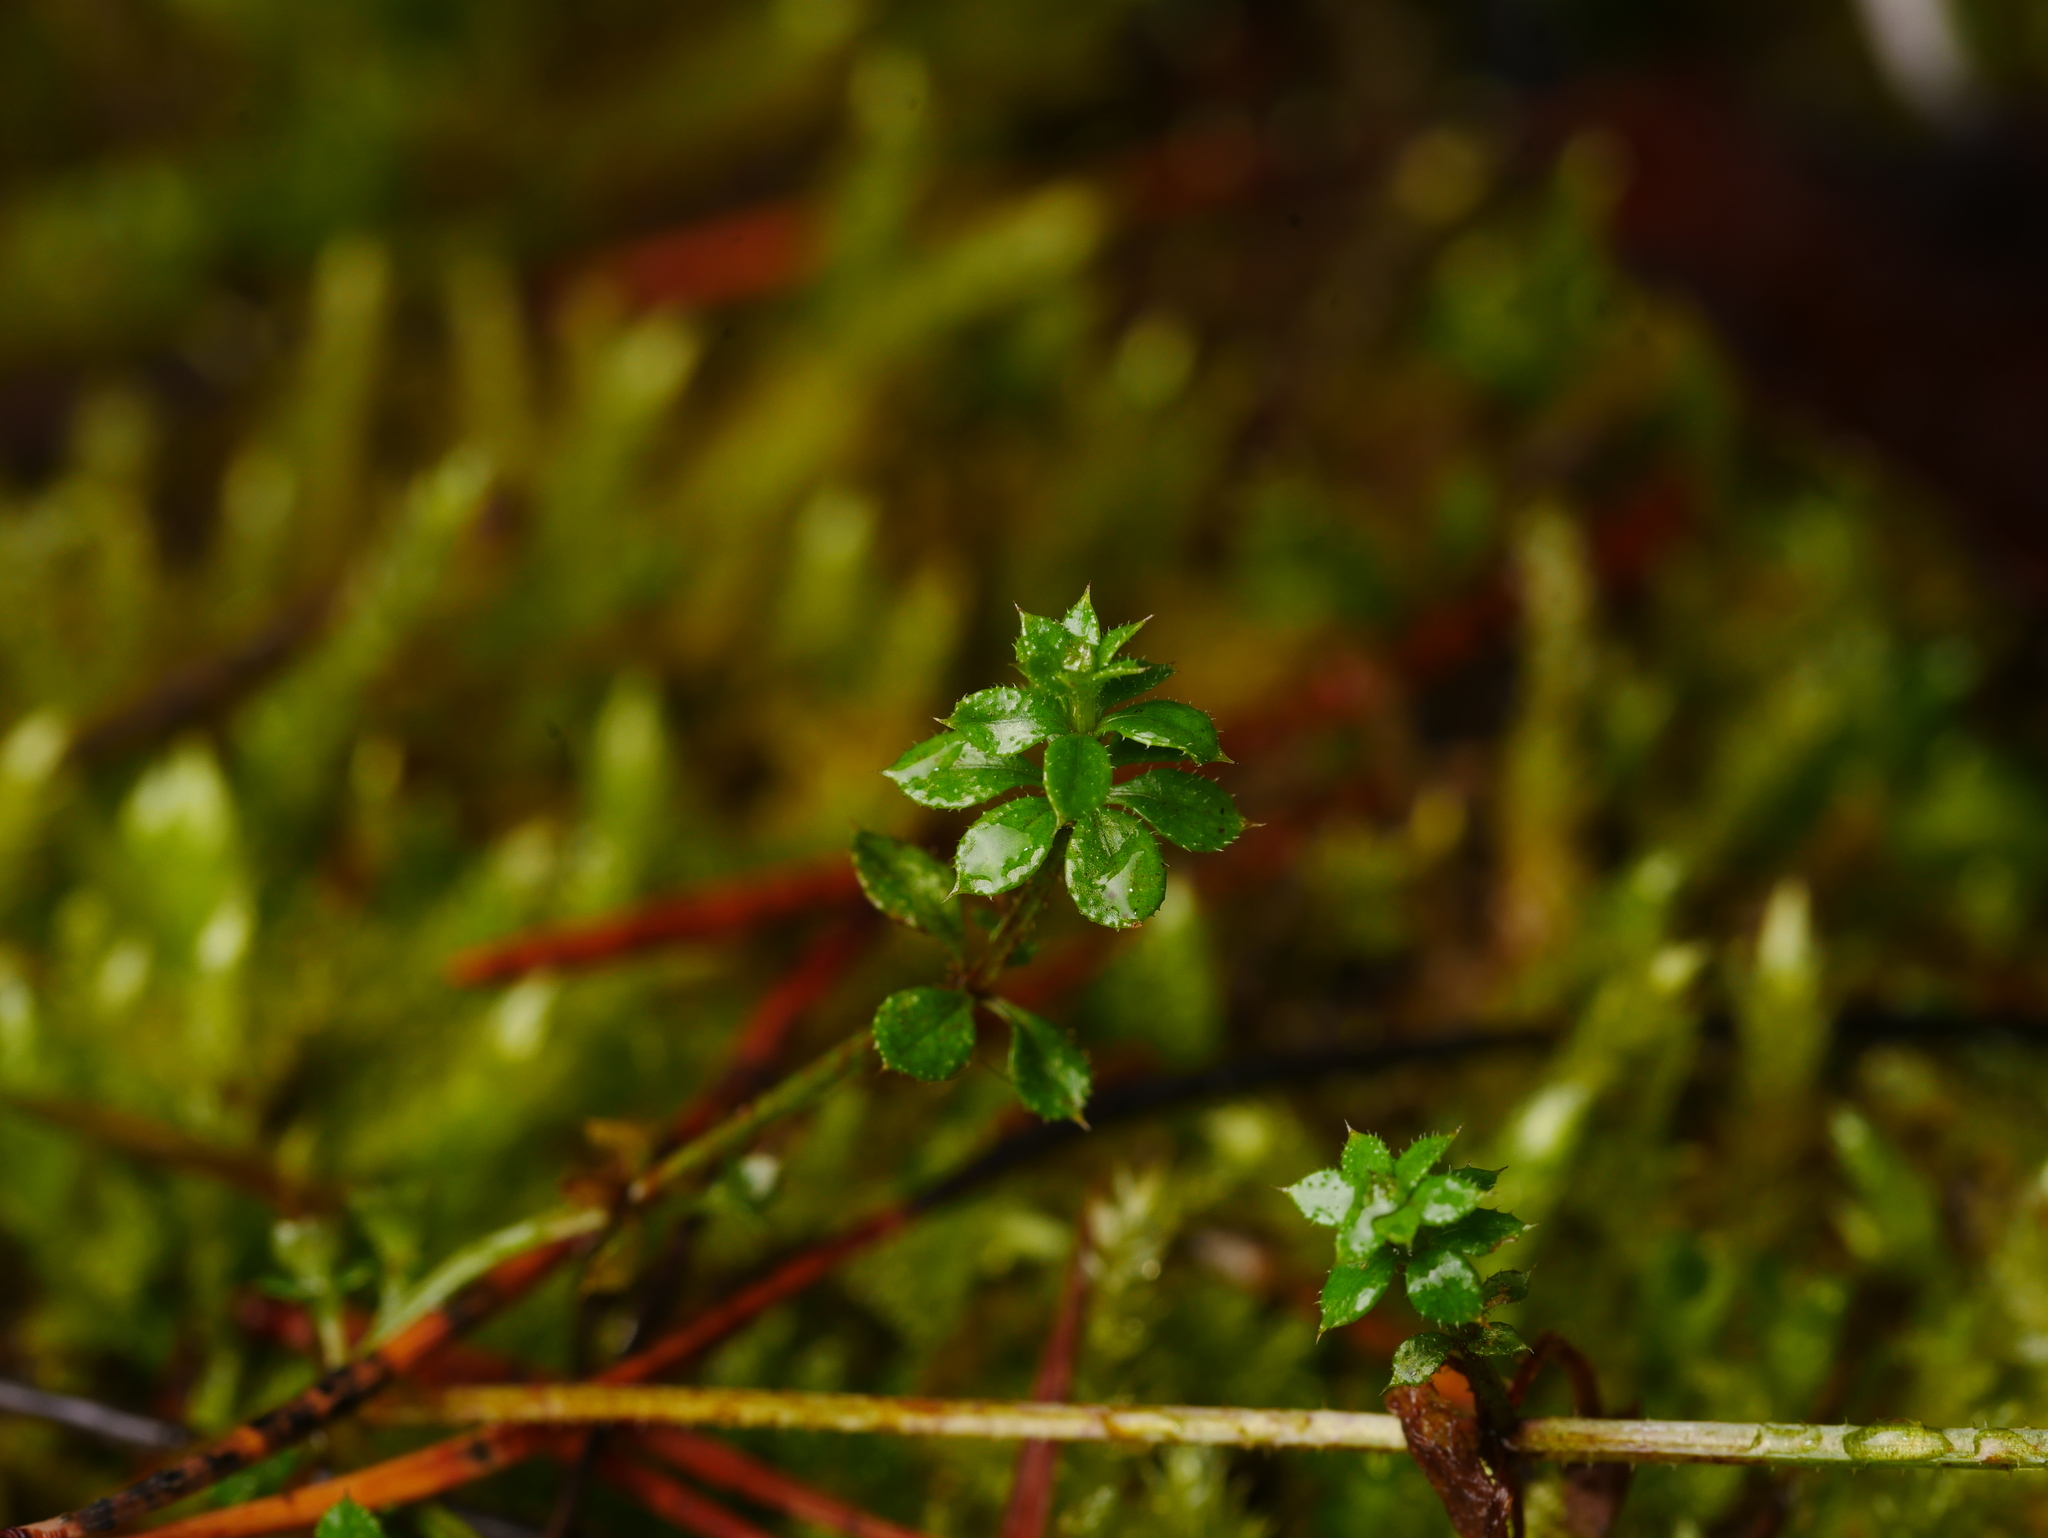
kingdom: Plantae
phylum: Tracheophyta
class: Magnoliopsida
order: Gentianales
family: Rubiaceae
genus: Galium
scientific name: Galium aparine
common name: Cleavers
